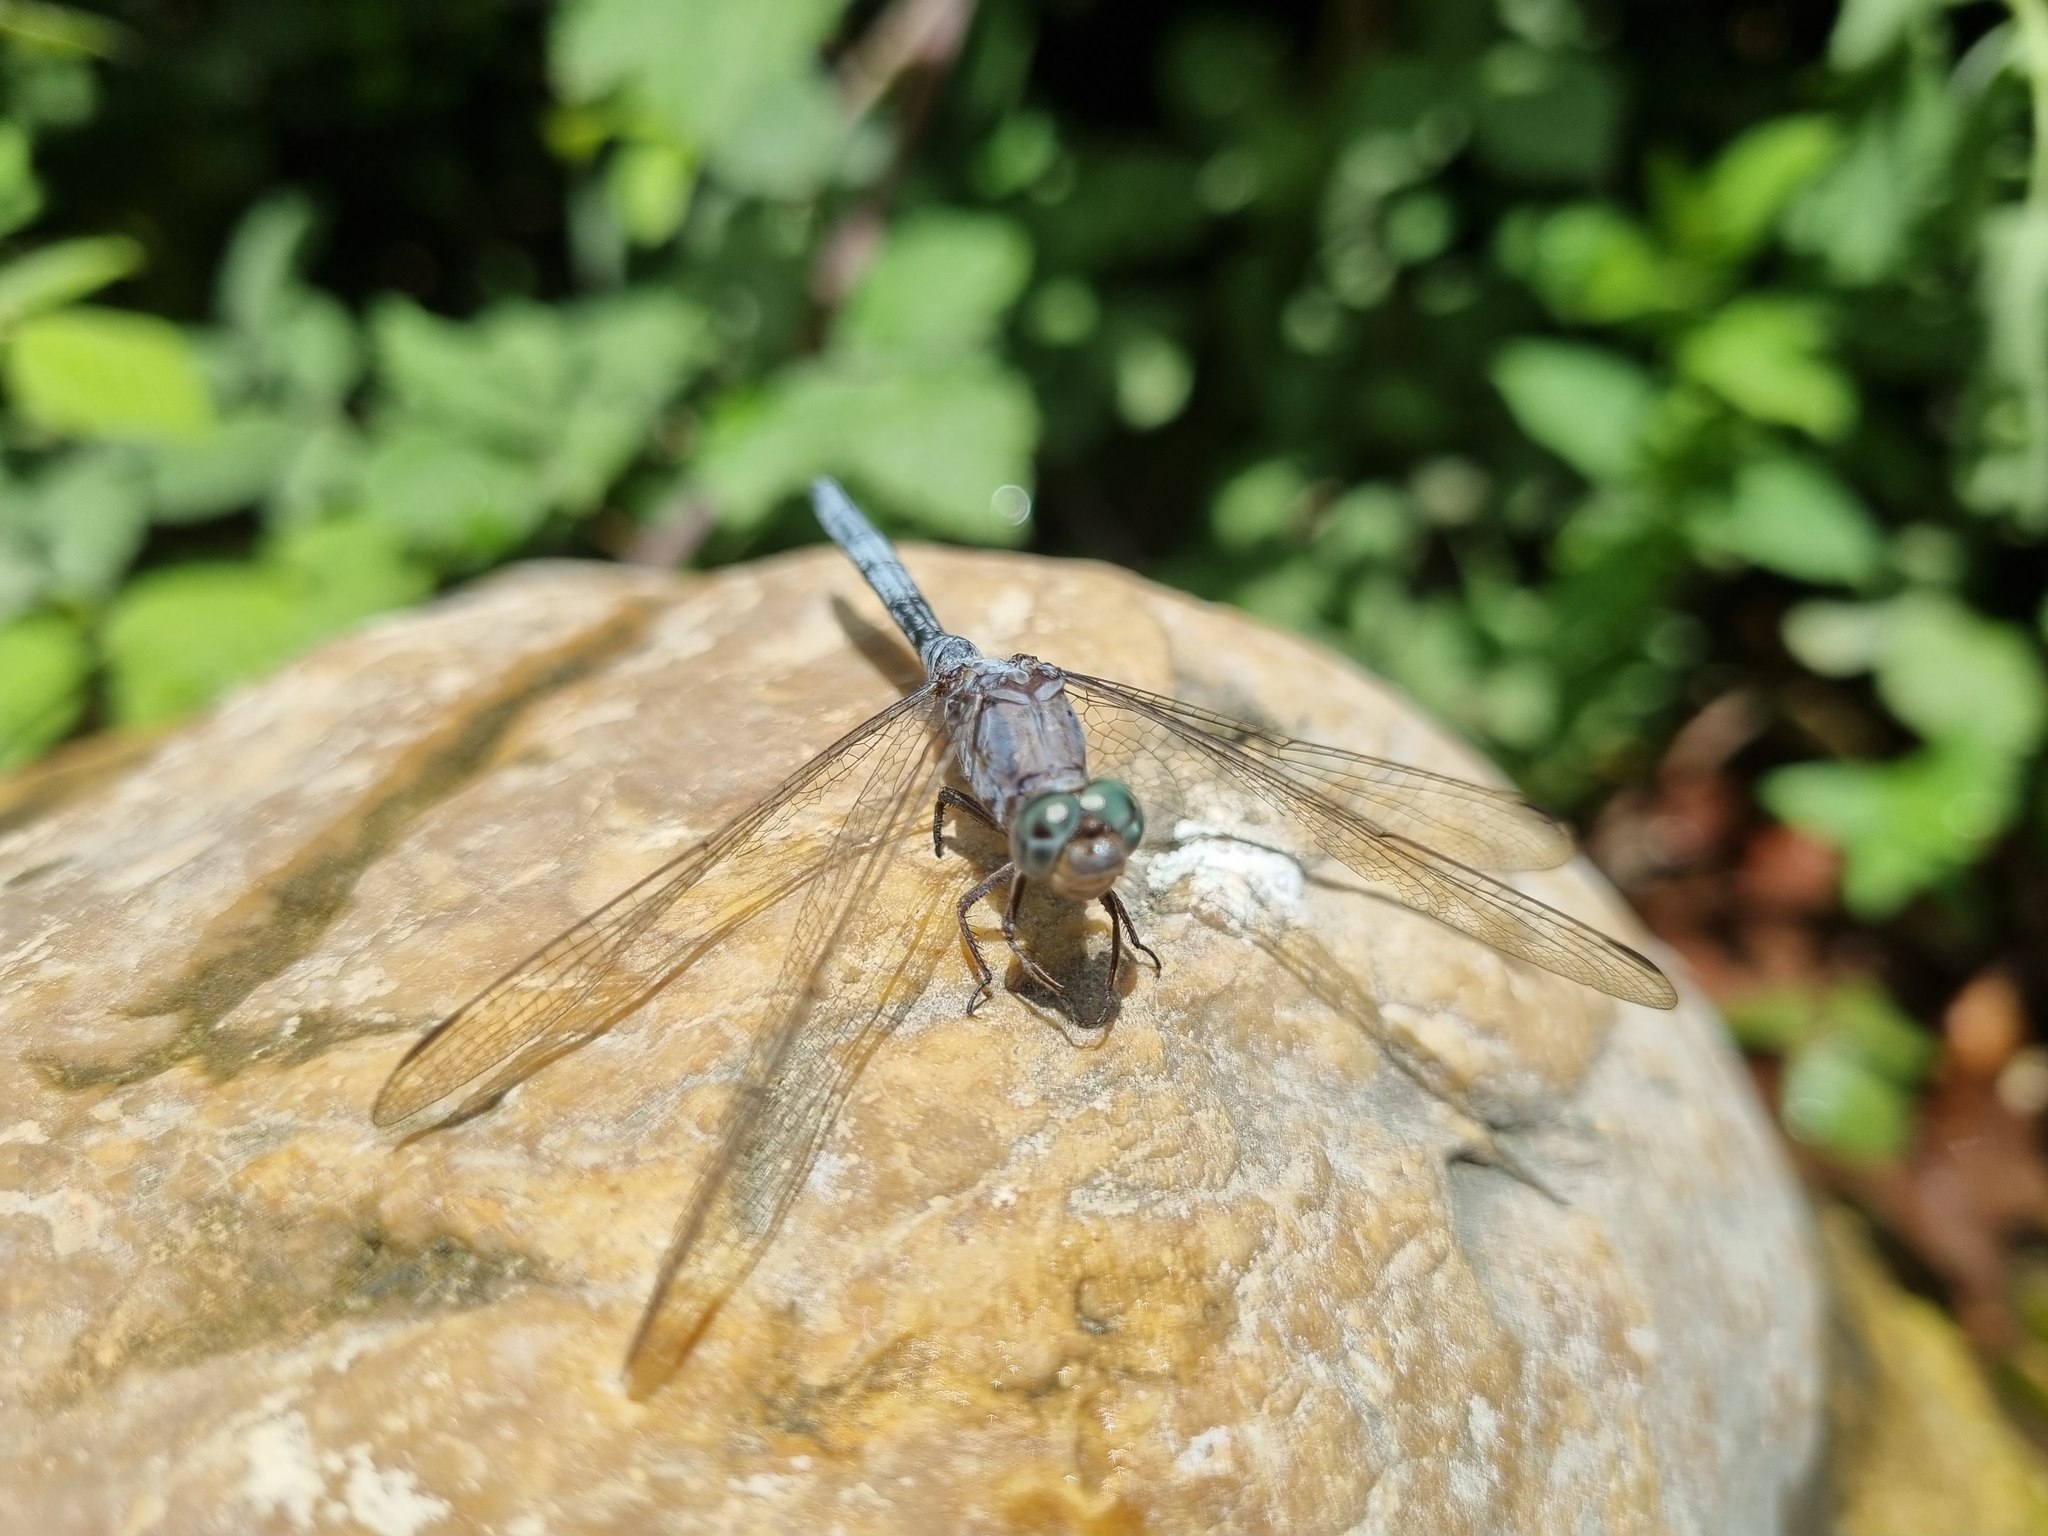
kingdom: Animalia
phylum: Arthropoda
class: Insecta
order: Odonata
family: Libellulidae
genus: Orthetrum
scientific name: Orthetrum chrysostigma
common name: Epaulet skimmer
